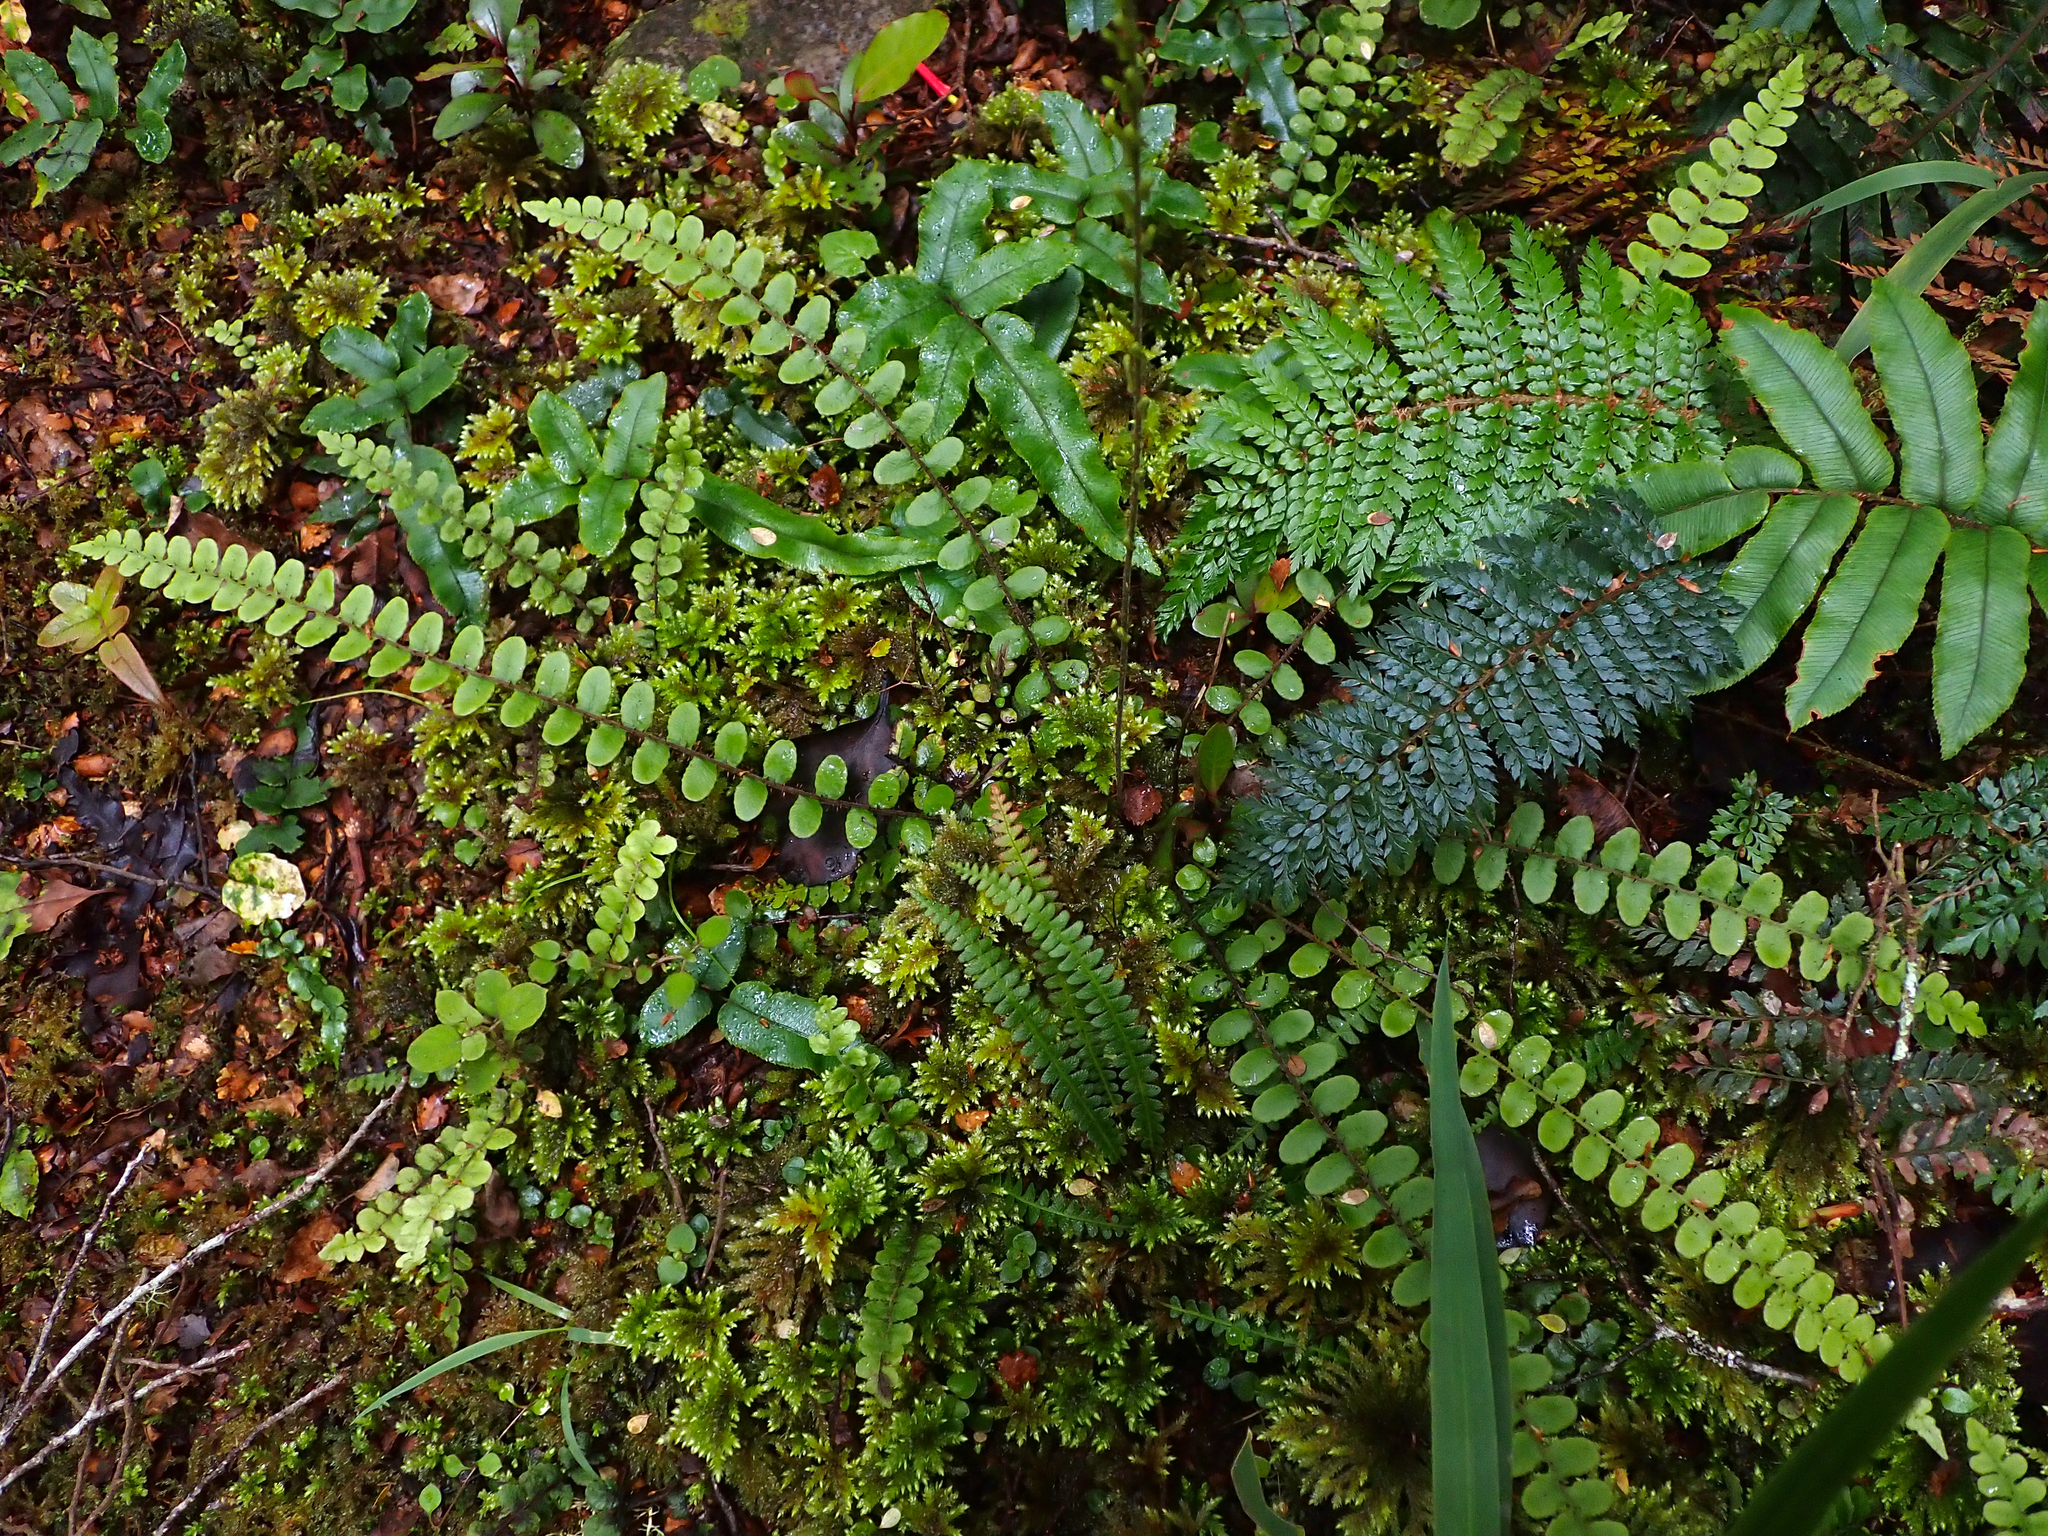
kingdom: Plantae
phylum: Tracheophyta
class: Polypodiopsida
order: Polypodiales
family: Blechnaceae
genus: Cranfillia
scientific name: Cranfillia fluviatilis
